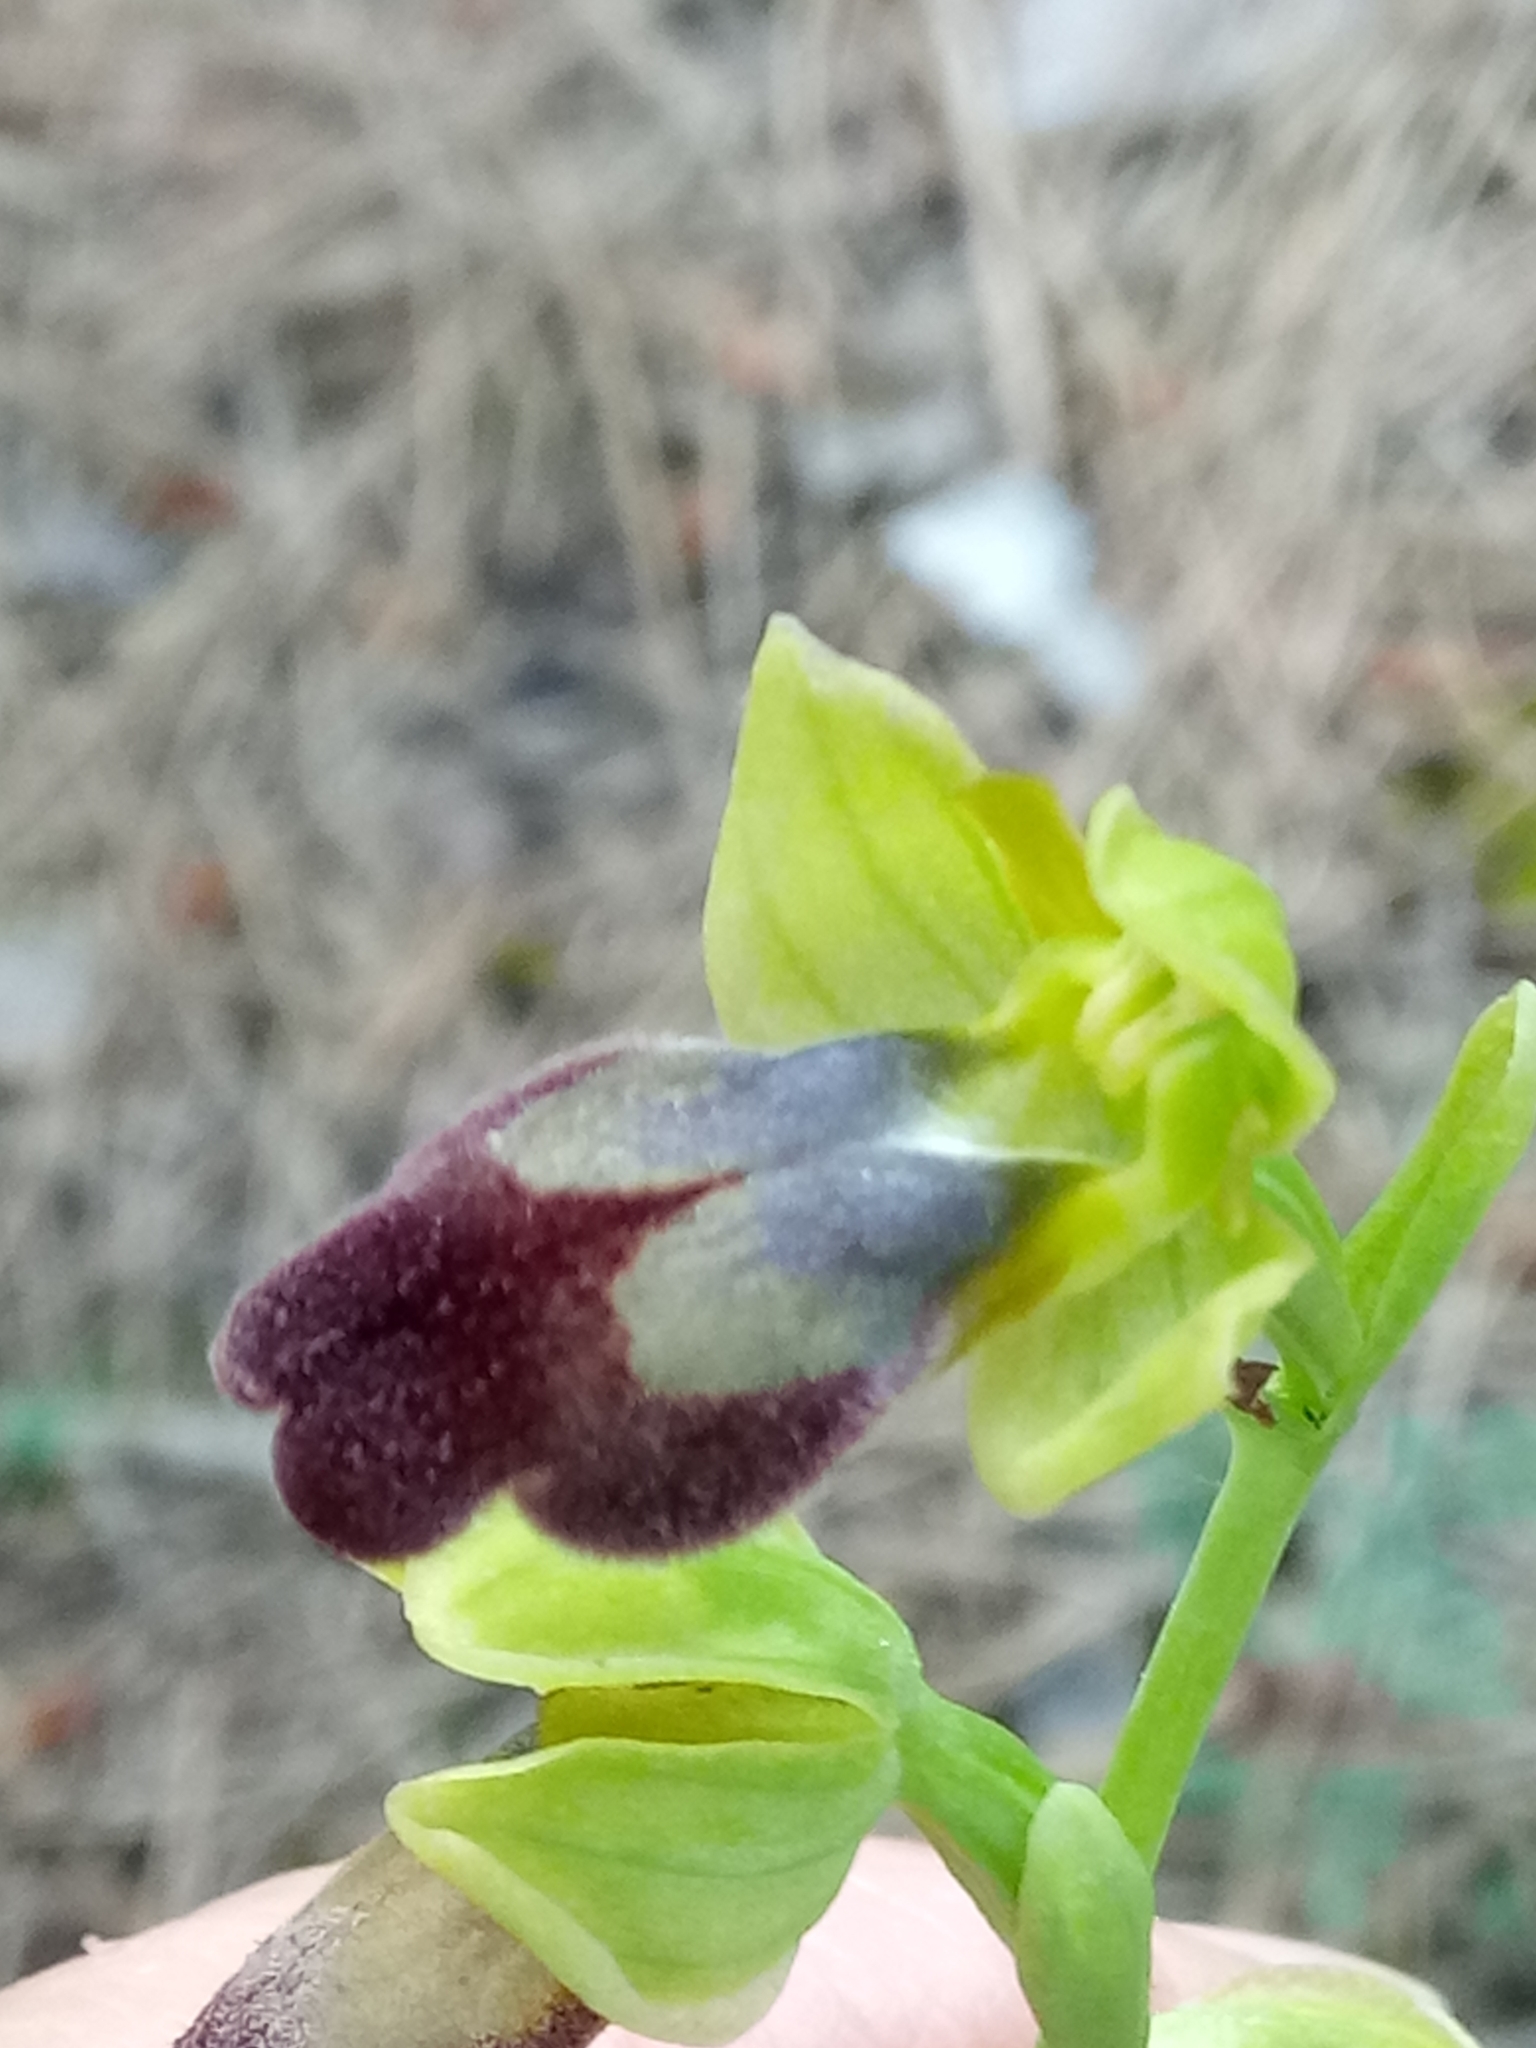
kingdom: Plantae
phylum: Tracheophyta
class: Liliopsida
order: Asparagales
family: Orchidaceae
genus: Ophrys
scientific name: Ophrys fusca
